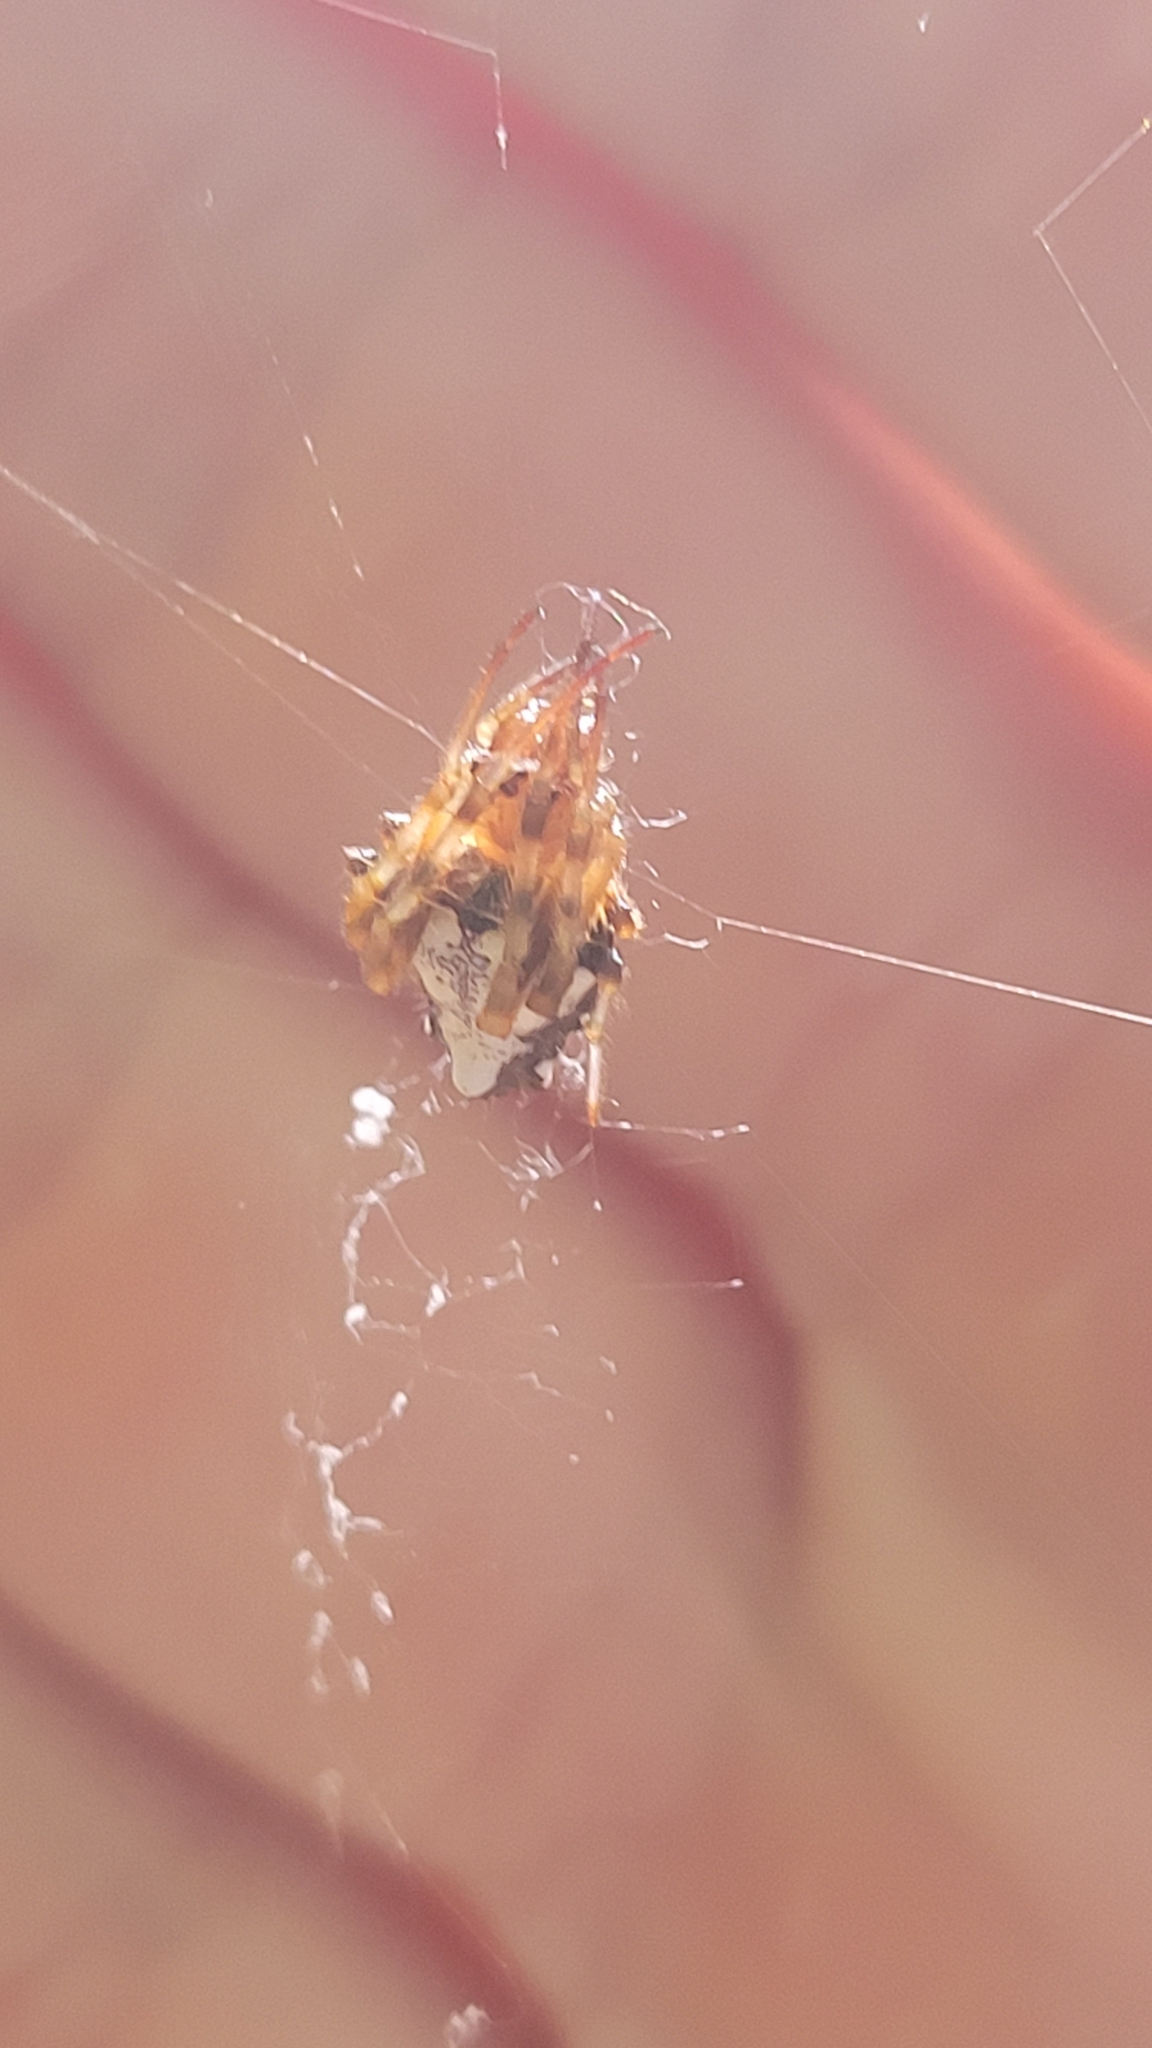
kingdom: Animalia
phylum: Arthropoda
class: Arachnida
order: Araneae
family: Araneidae
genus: Verrucosa
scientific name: Verrucosa arenata
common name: Orb weavers
